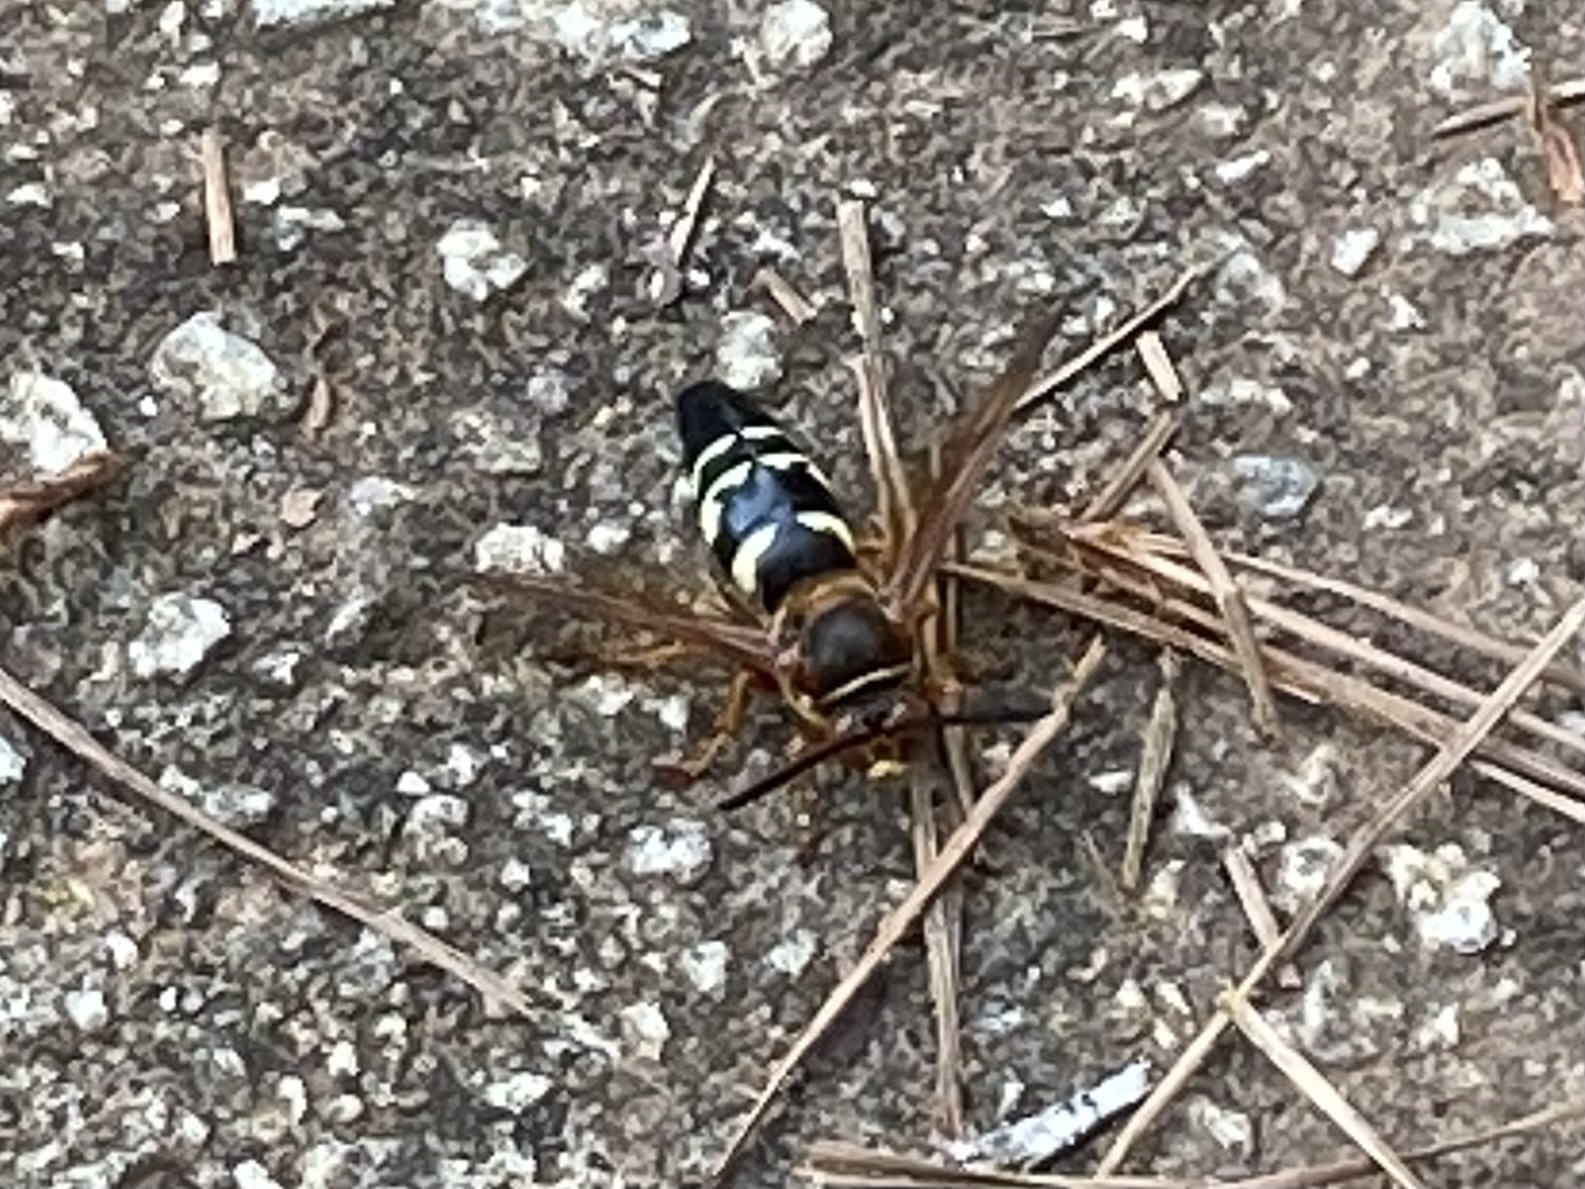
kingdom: Animalia
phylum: Arthropoda
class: Insecta
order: Hymenoptera
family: Crabronidae
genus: Sphecius
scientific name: Sphecius speciosus
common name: Cicada killer
